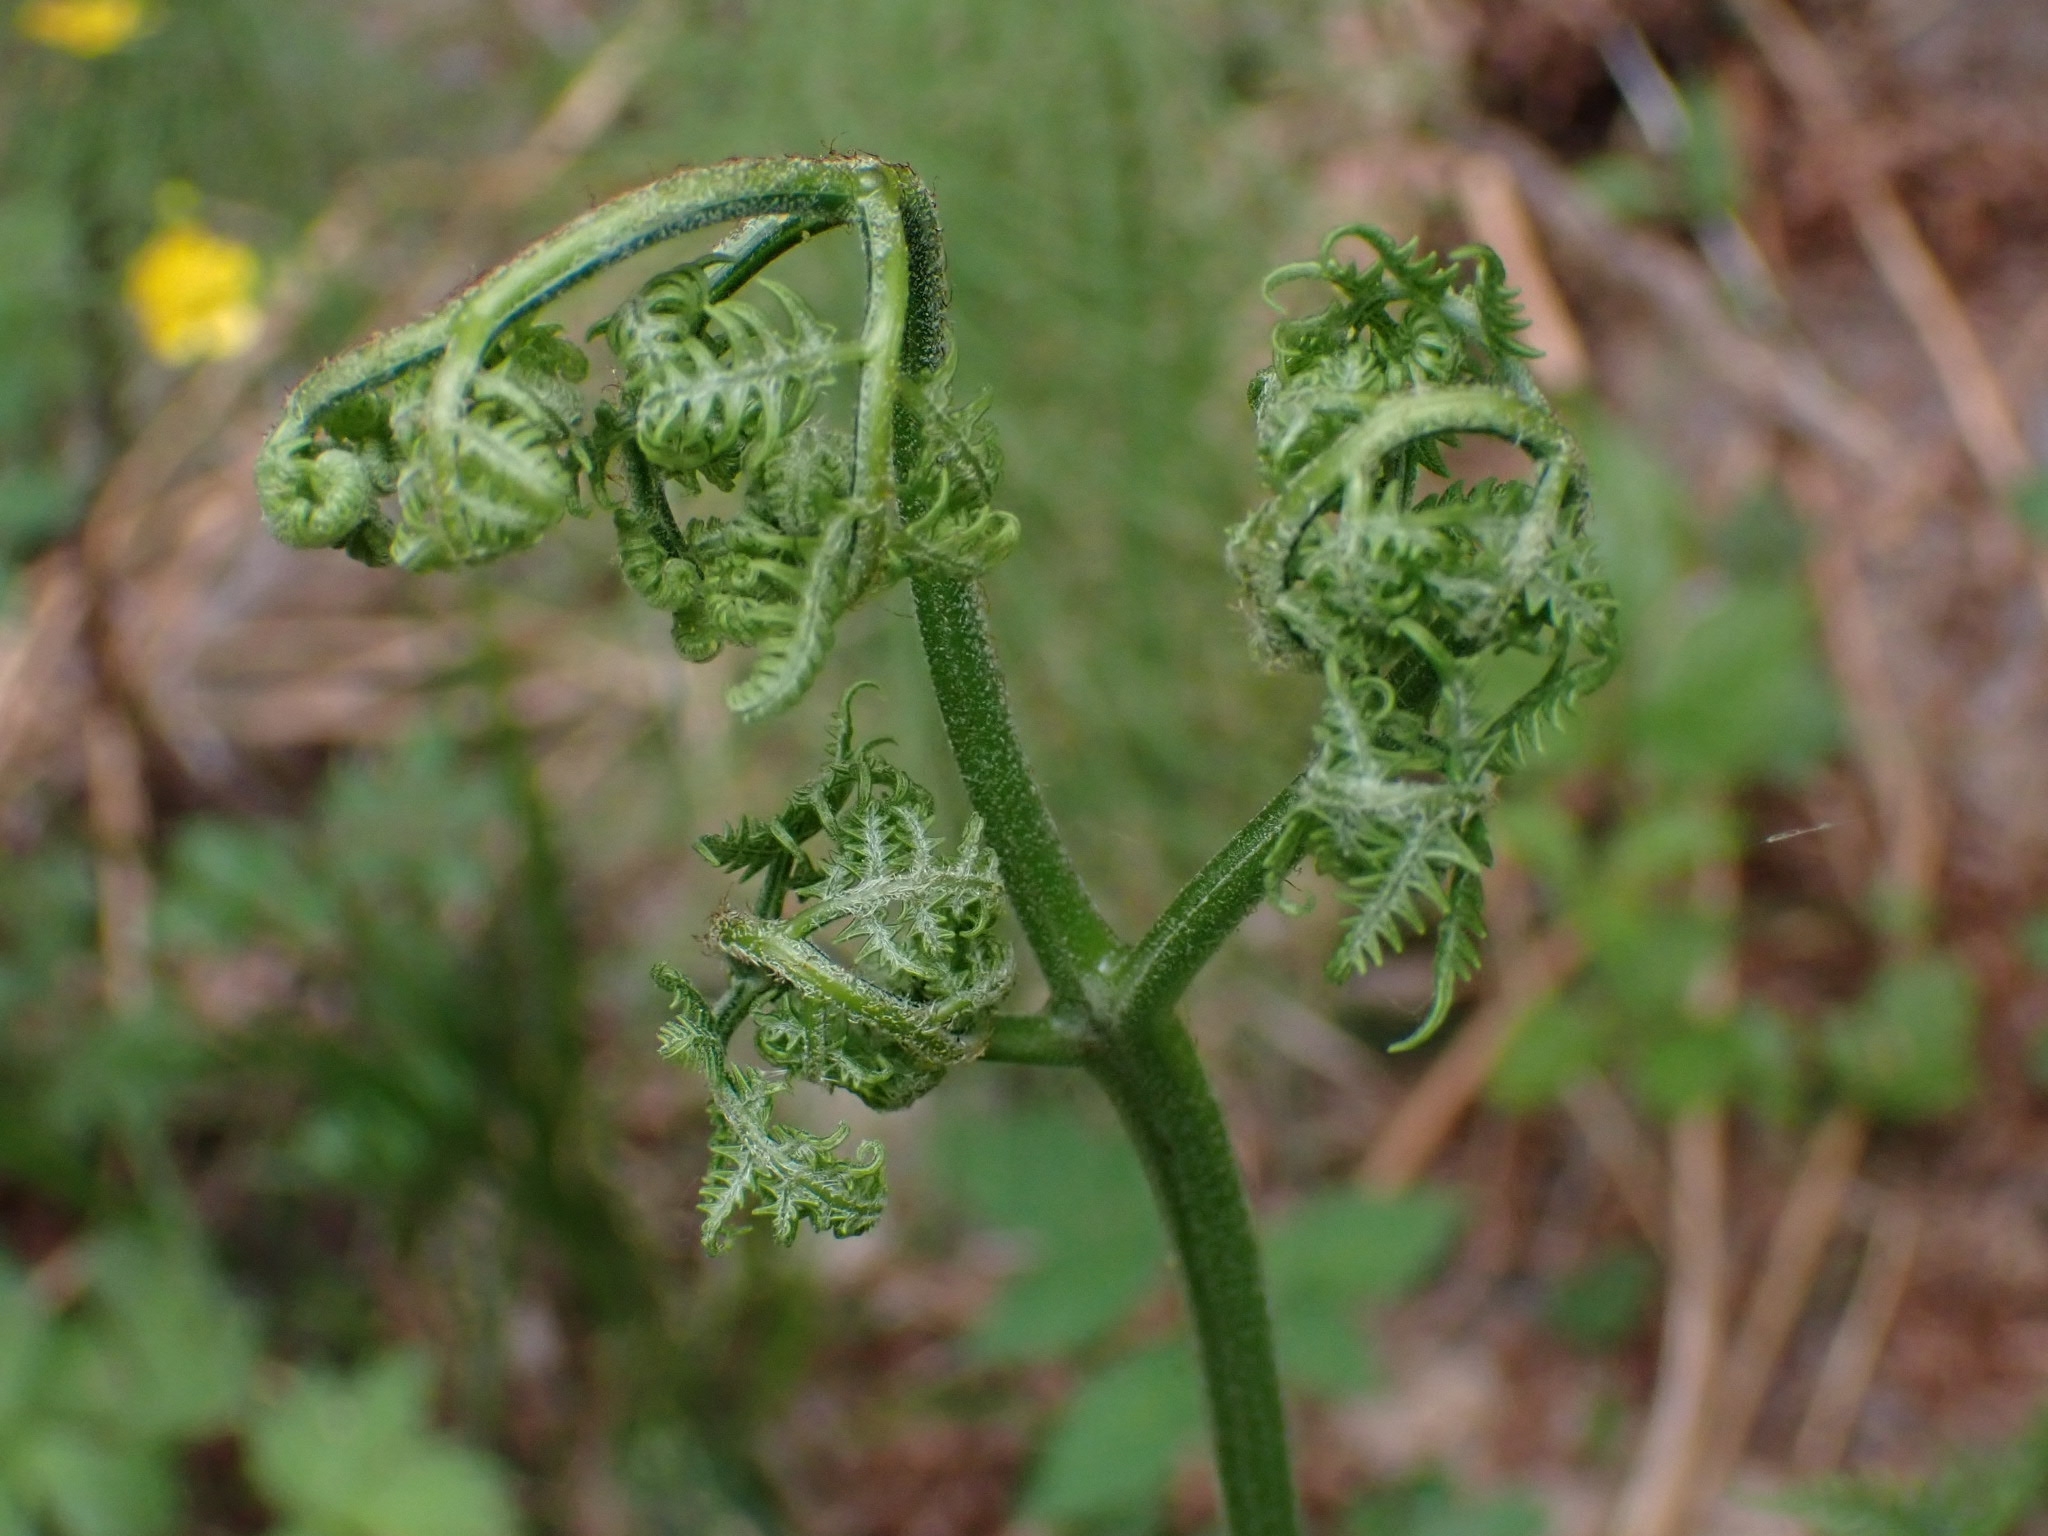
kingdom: Plantae
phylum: Tracheophyta
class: Polypodiopsida
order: Polypodiales
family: Dennstaedtiaceae
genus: Pteridium
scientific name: Pteridium aquilinum
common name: Bracken
